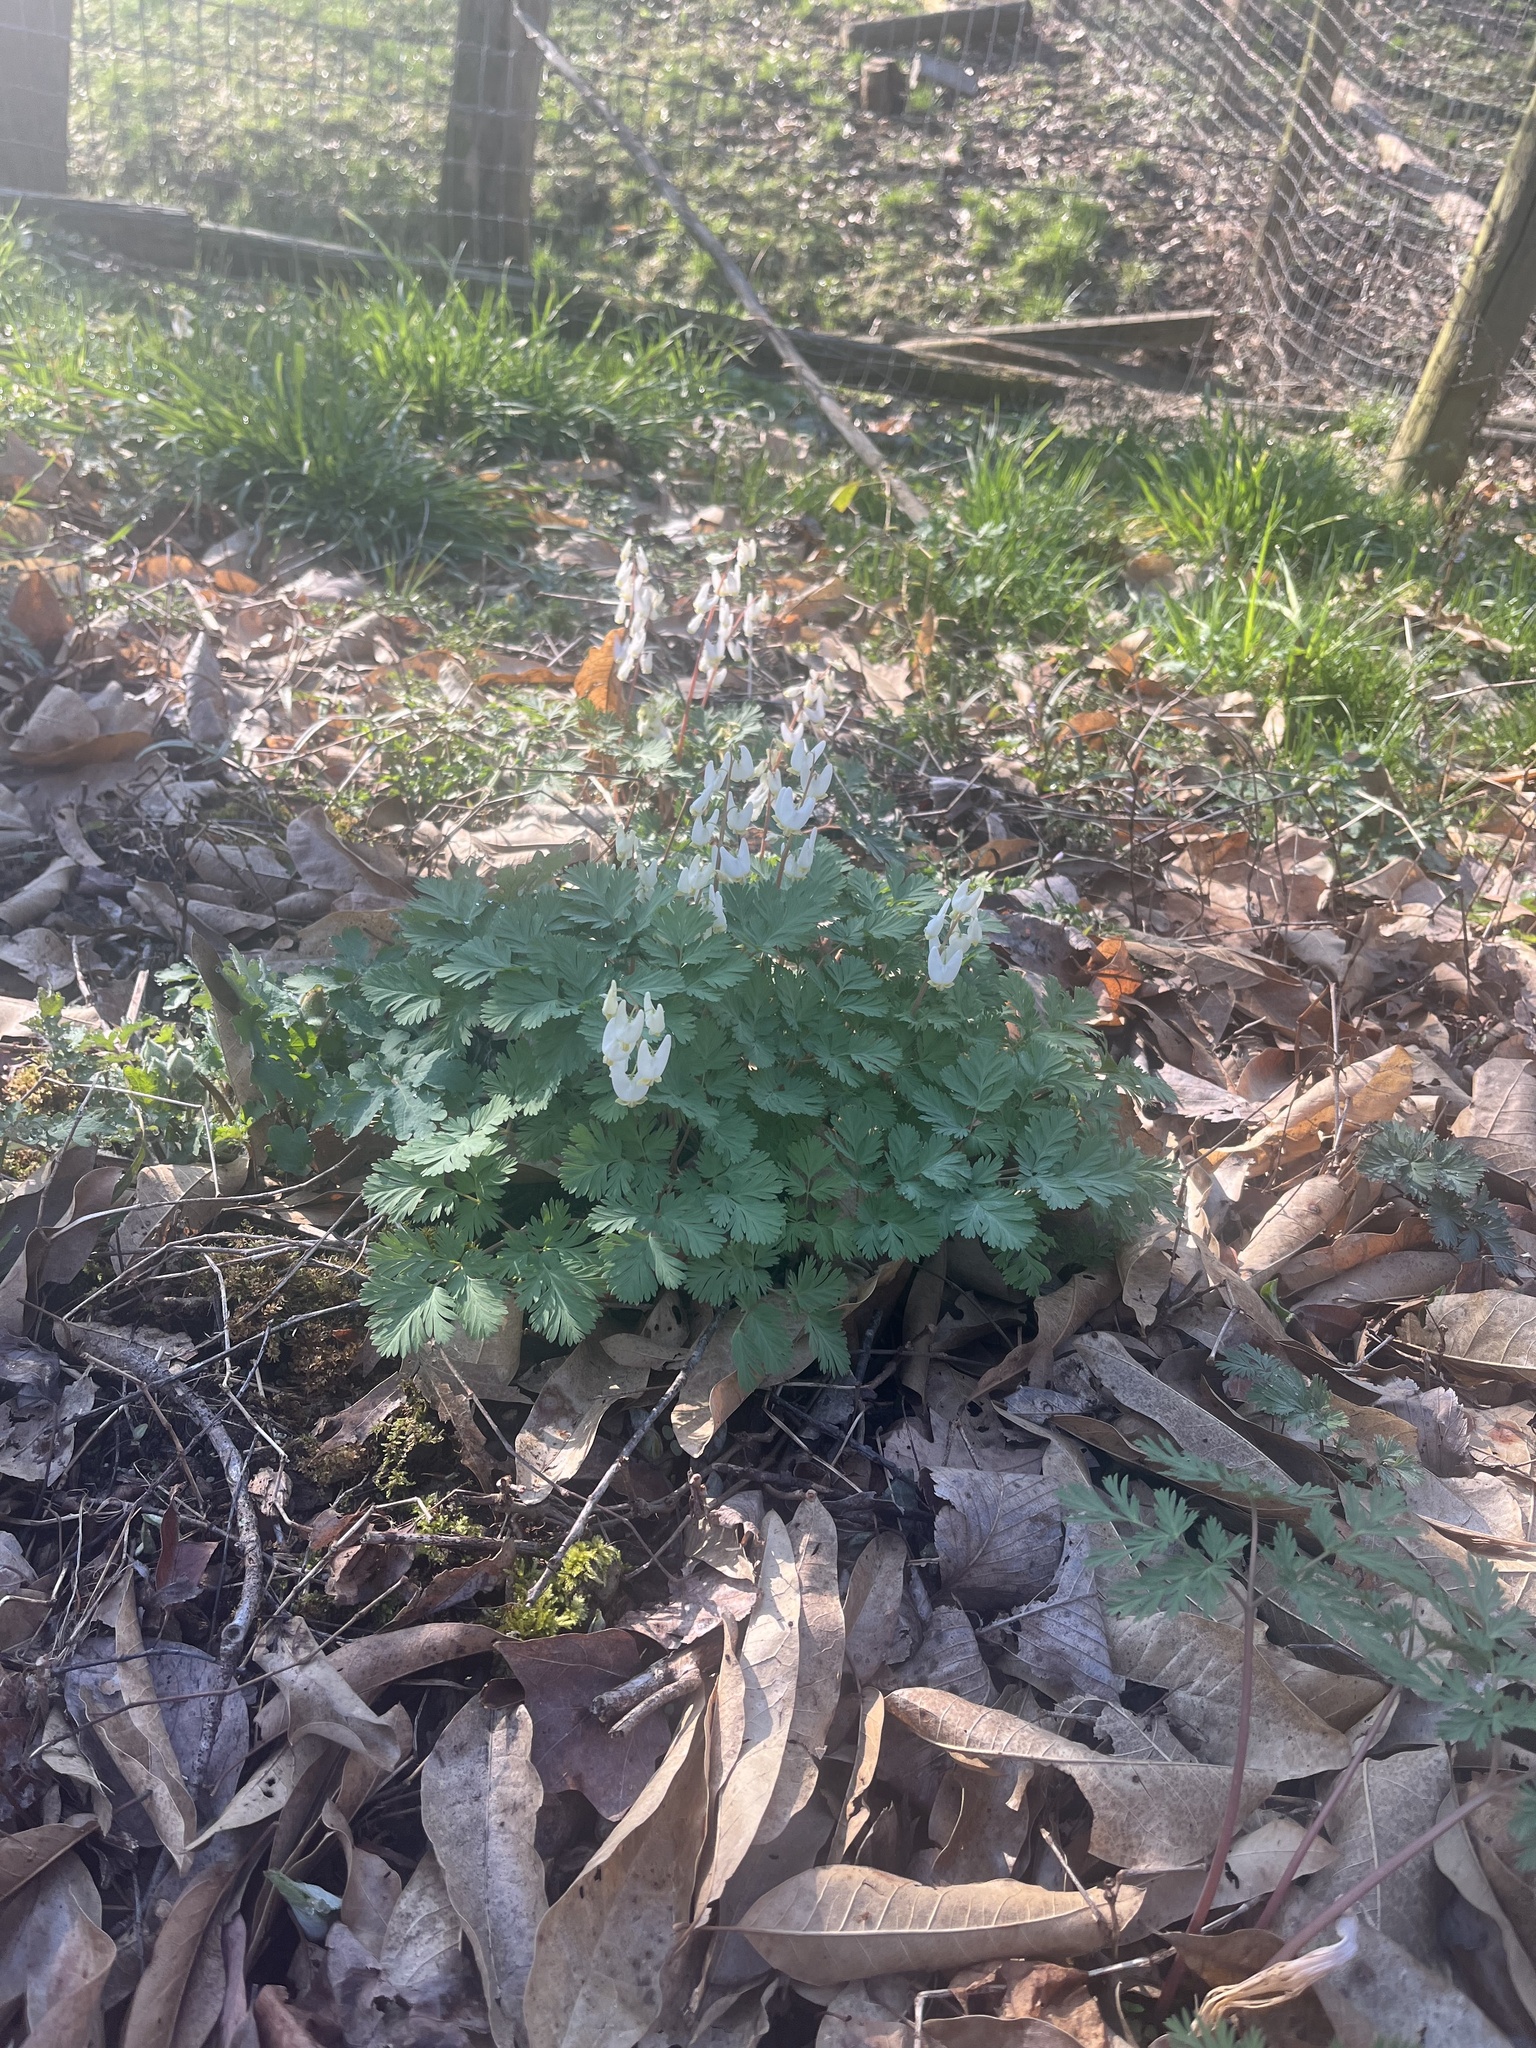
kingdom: Plantae
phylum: Tracheophyta
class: Magnoliopsida
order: Ranunculales
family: Papaveraceae
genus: Dicentra
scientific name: Dicentra cucullaria
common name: Dutchman's breeches
